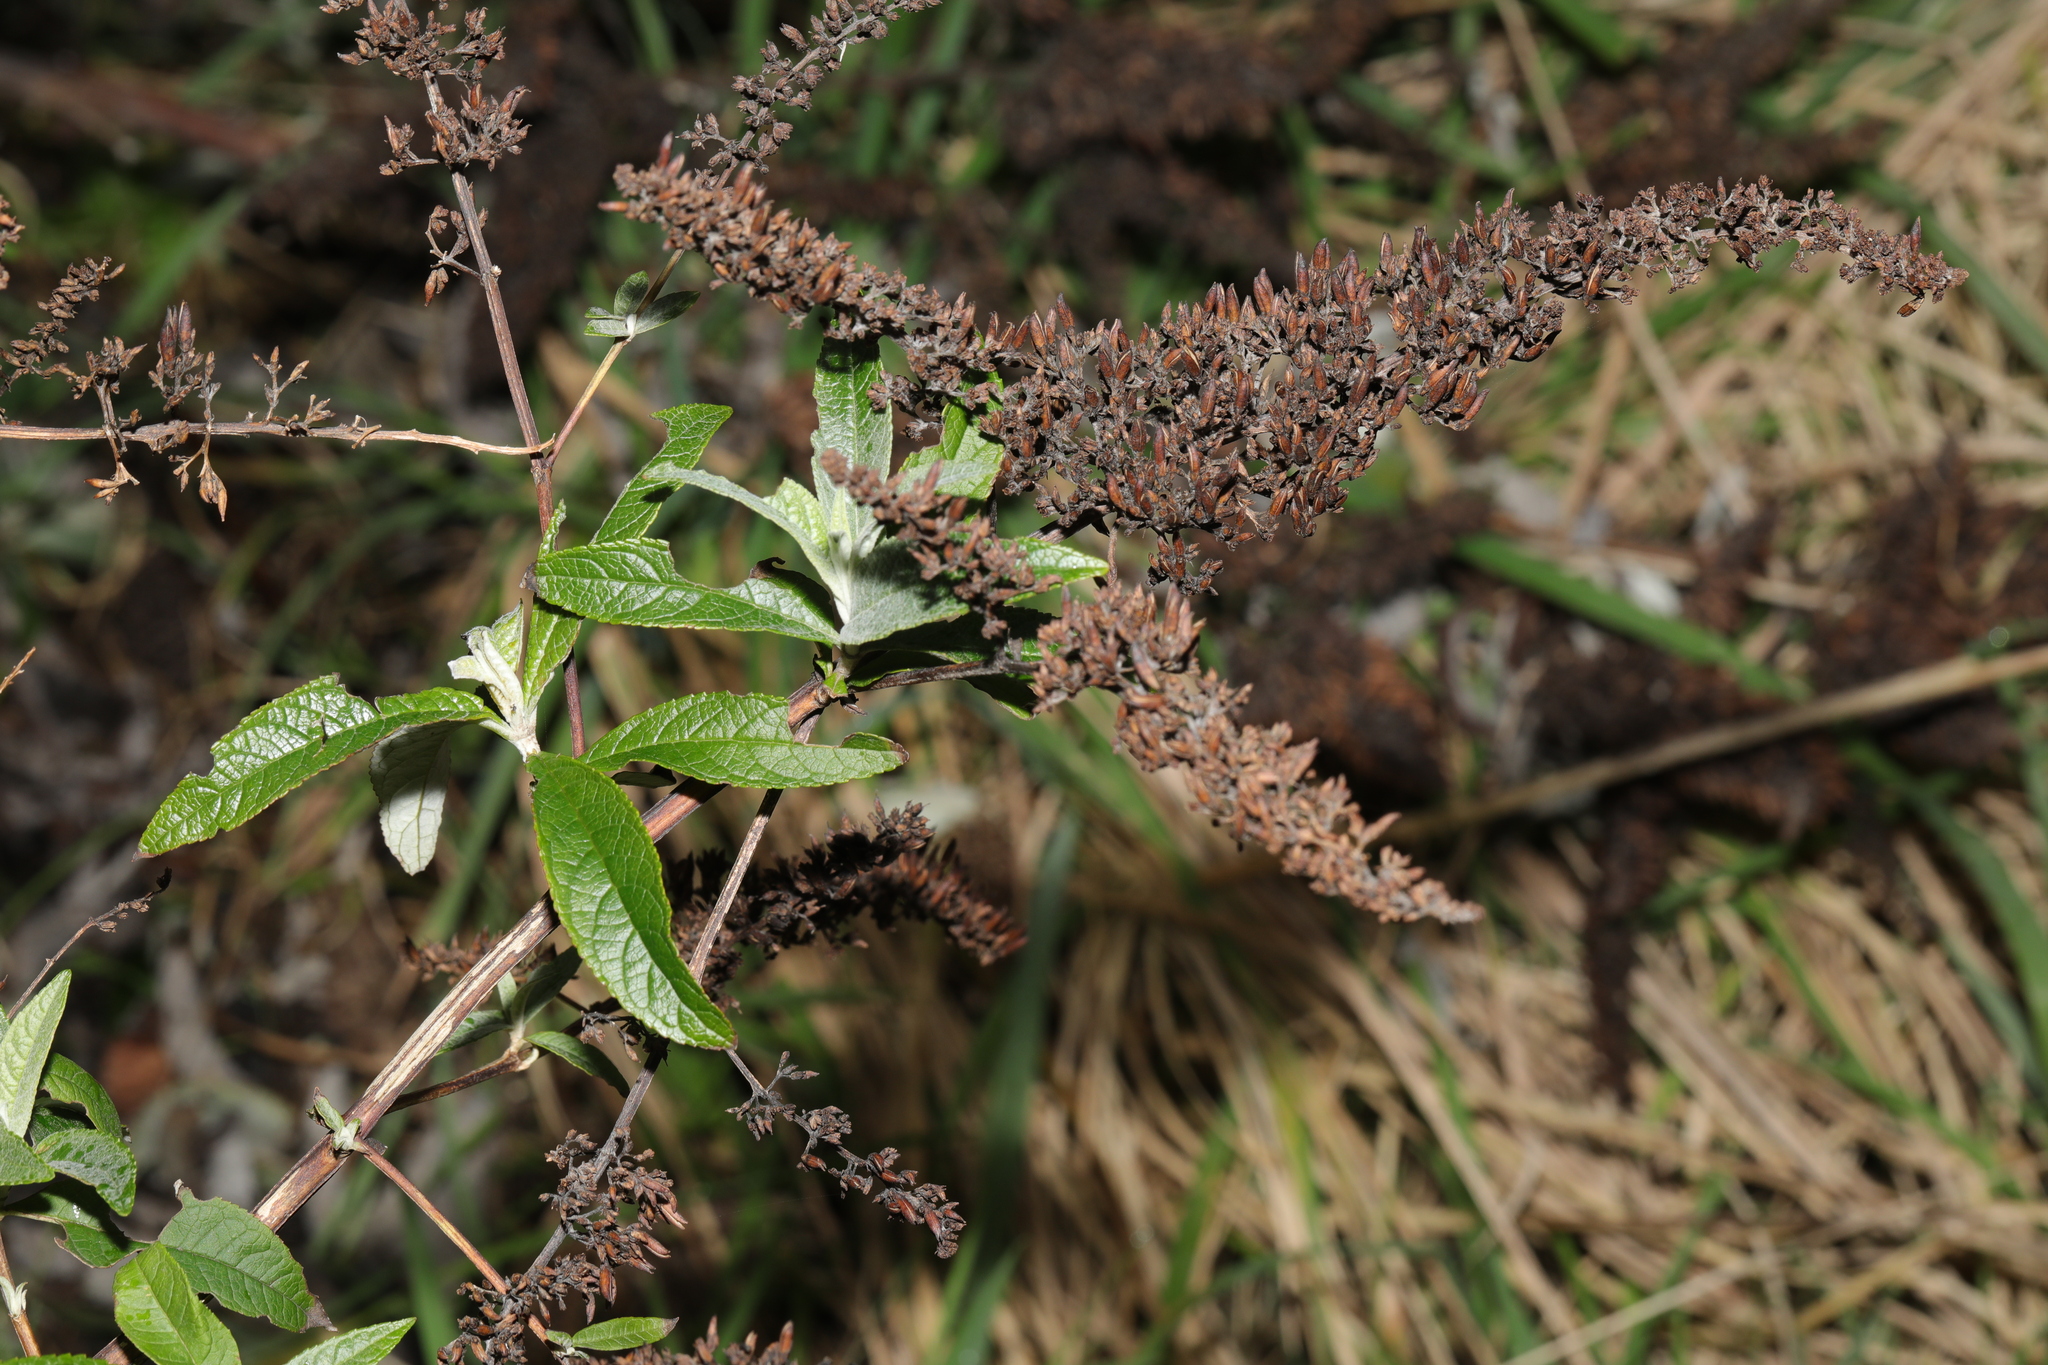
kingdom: Plantae
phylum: Tracheophyta
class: Magnoliopsida
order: Lamiales
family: Scrophulariaceae
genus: Buddleja
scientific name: Buddleja davidii
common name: Butterfly-bush
